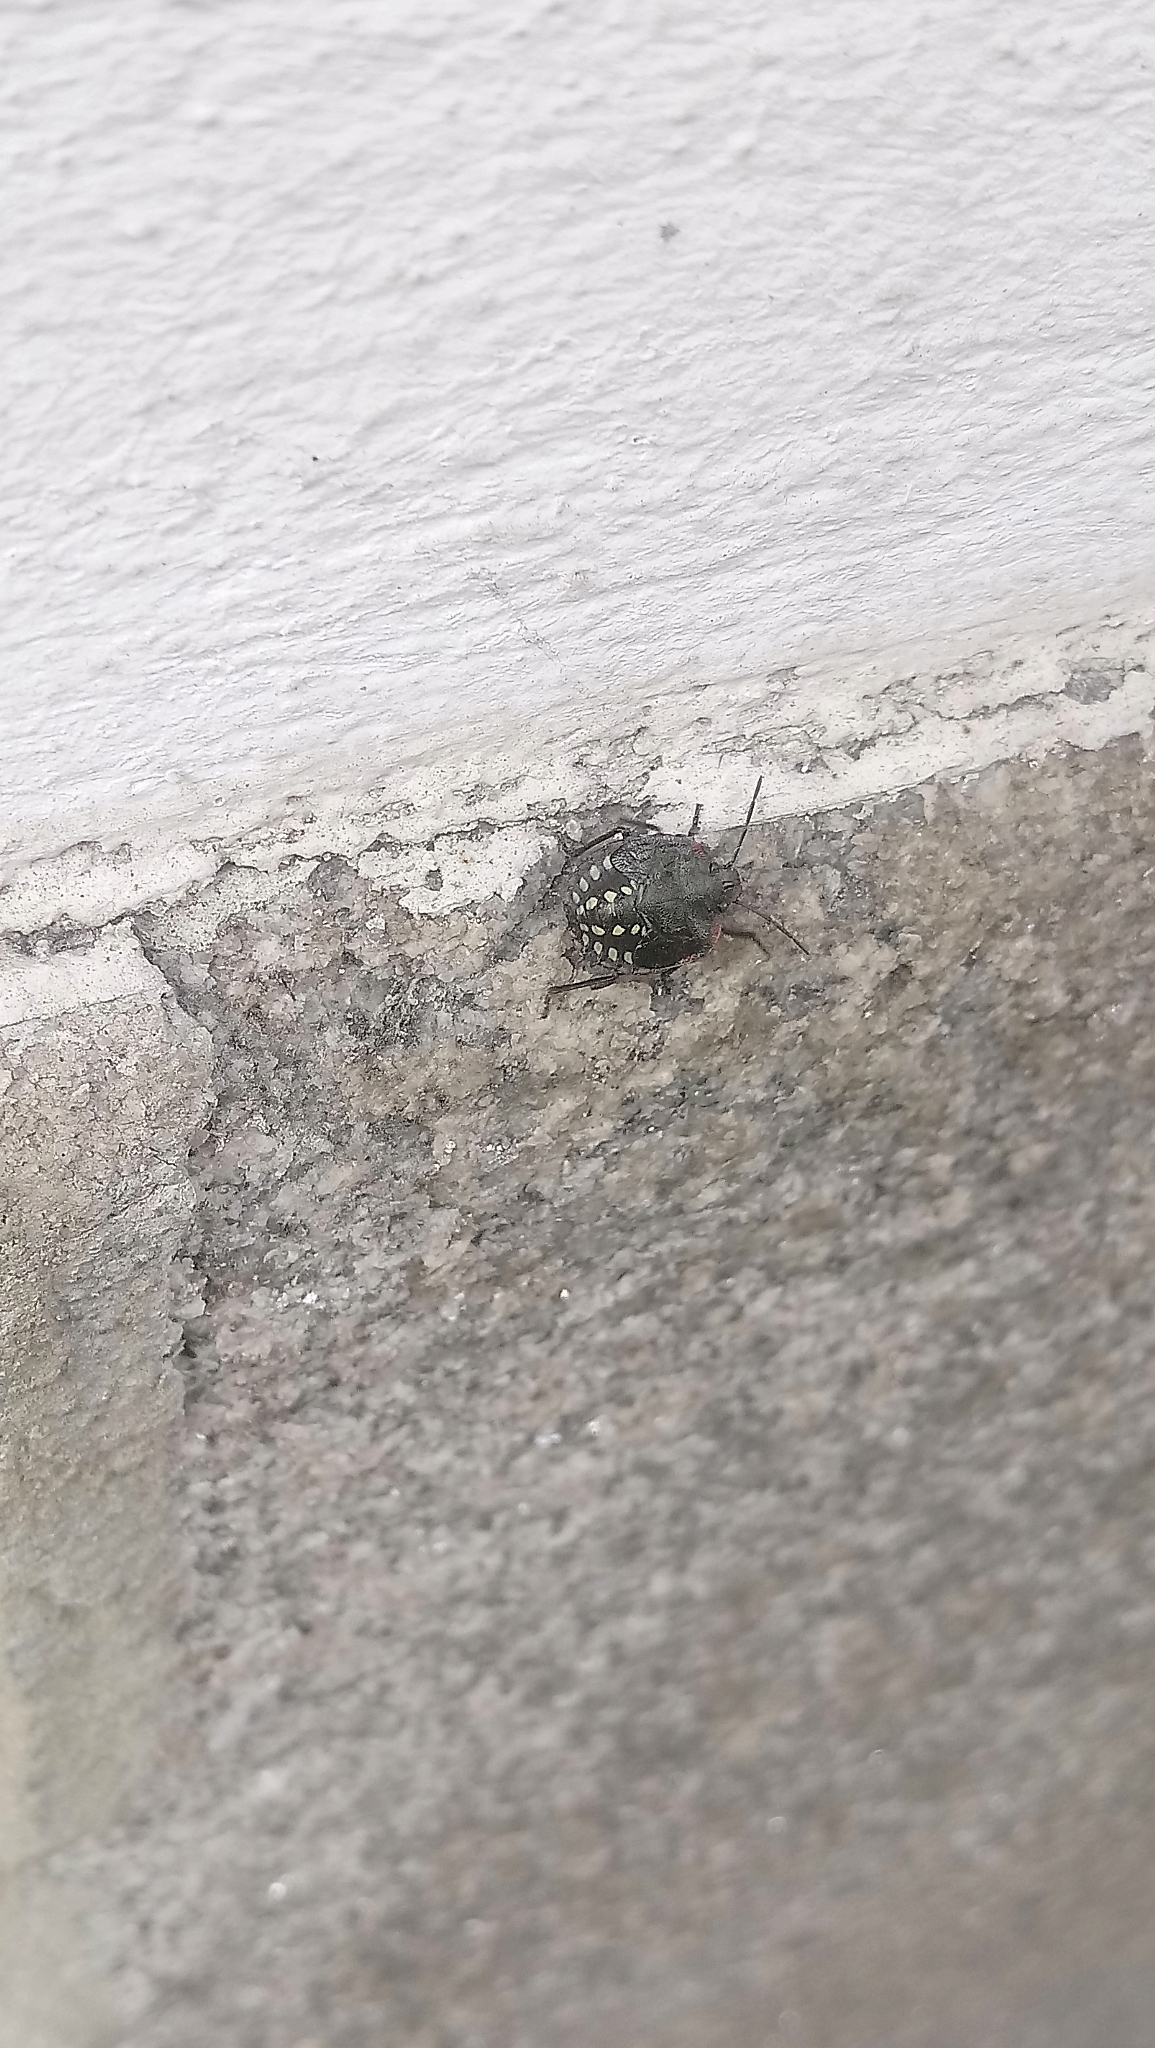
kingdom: Animalia
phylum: Arthropoda
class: Insecta
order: Hemiptera
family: Pentatomidae
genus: Nezara
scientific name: Nezara viridula
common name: Southern green stink bug
